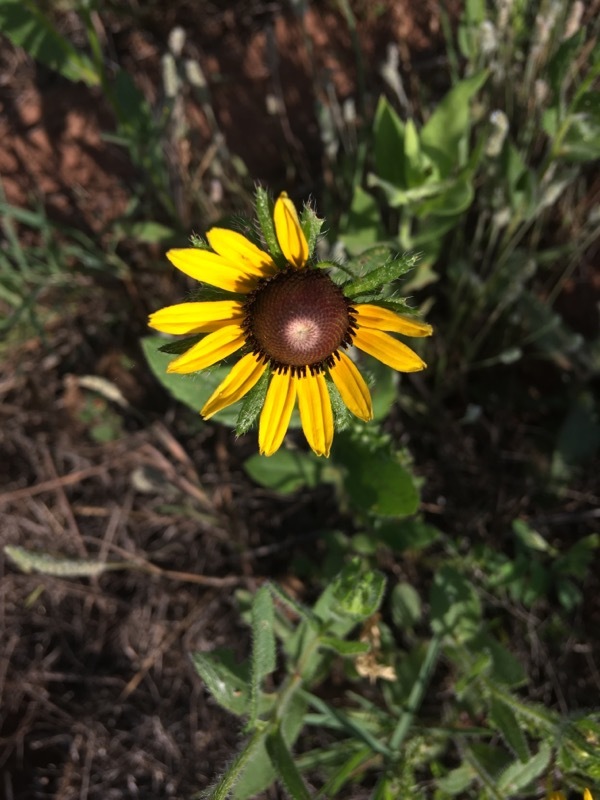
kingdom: Plantae
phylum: Tracheophyta
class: Magnoliopsida
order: Asterales
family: Asteraceae
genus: Rudbeckia
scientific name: Rudbeckia hirta
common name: Black-eyed-susan
